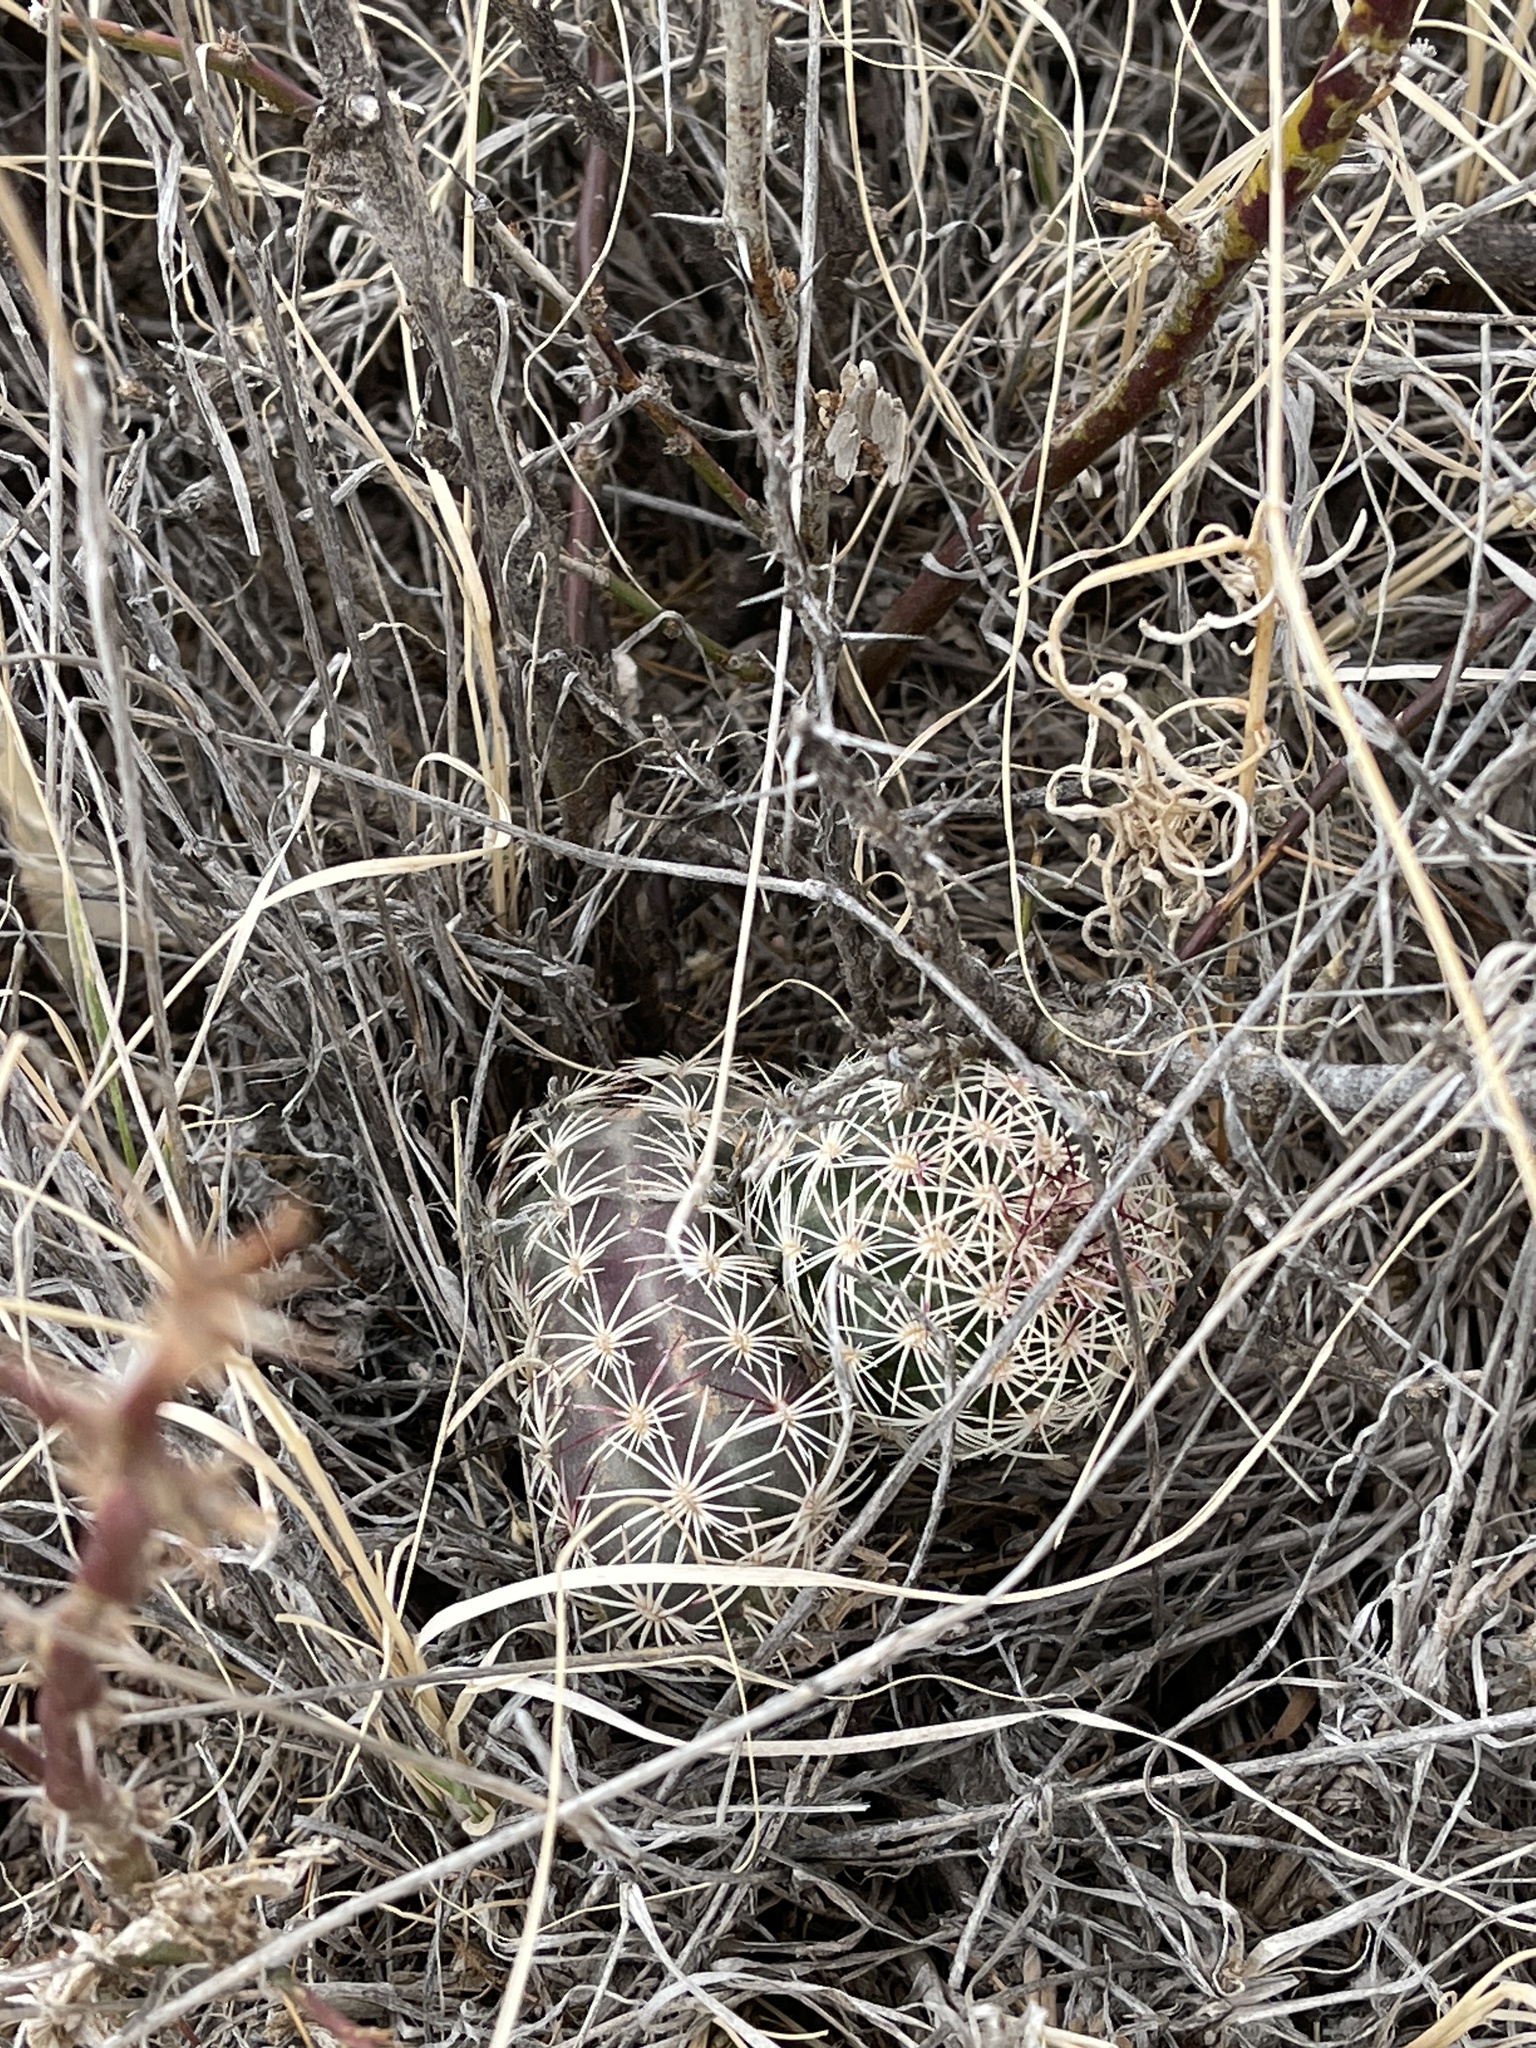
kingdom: Plantae
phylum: Tracheophyta
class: Magnoliopsida
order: Caryophyllales
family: Cactaceae
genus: Echinocereus
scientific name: Echinocereus viridiflorus
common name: Nylon hedgehog cactus
